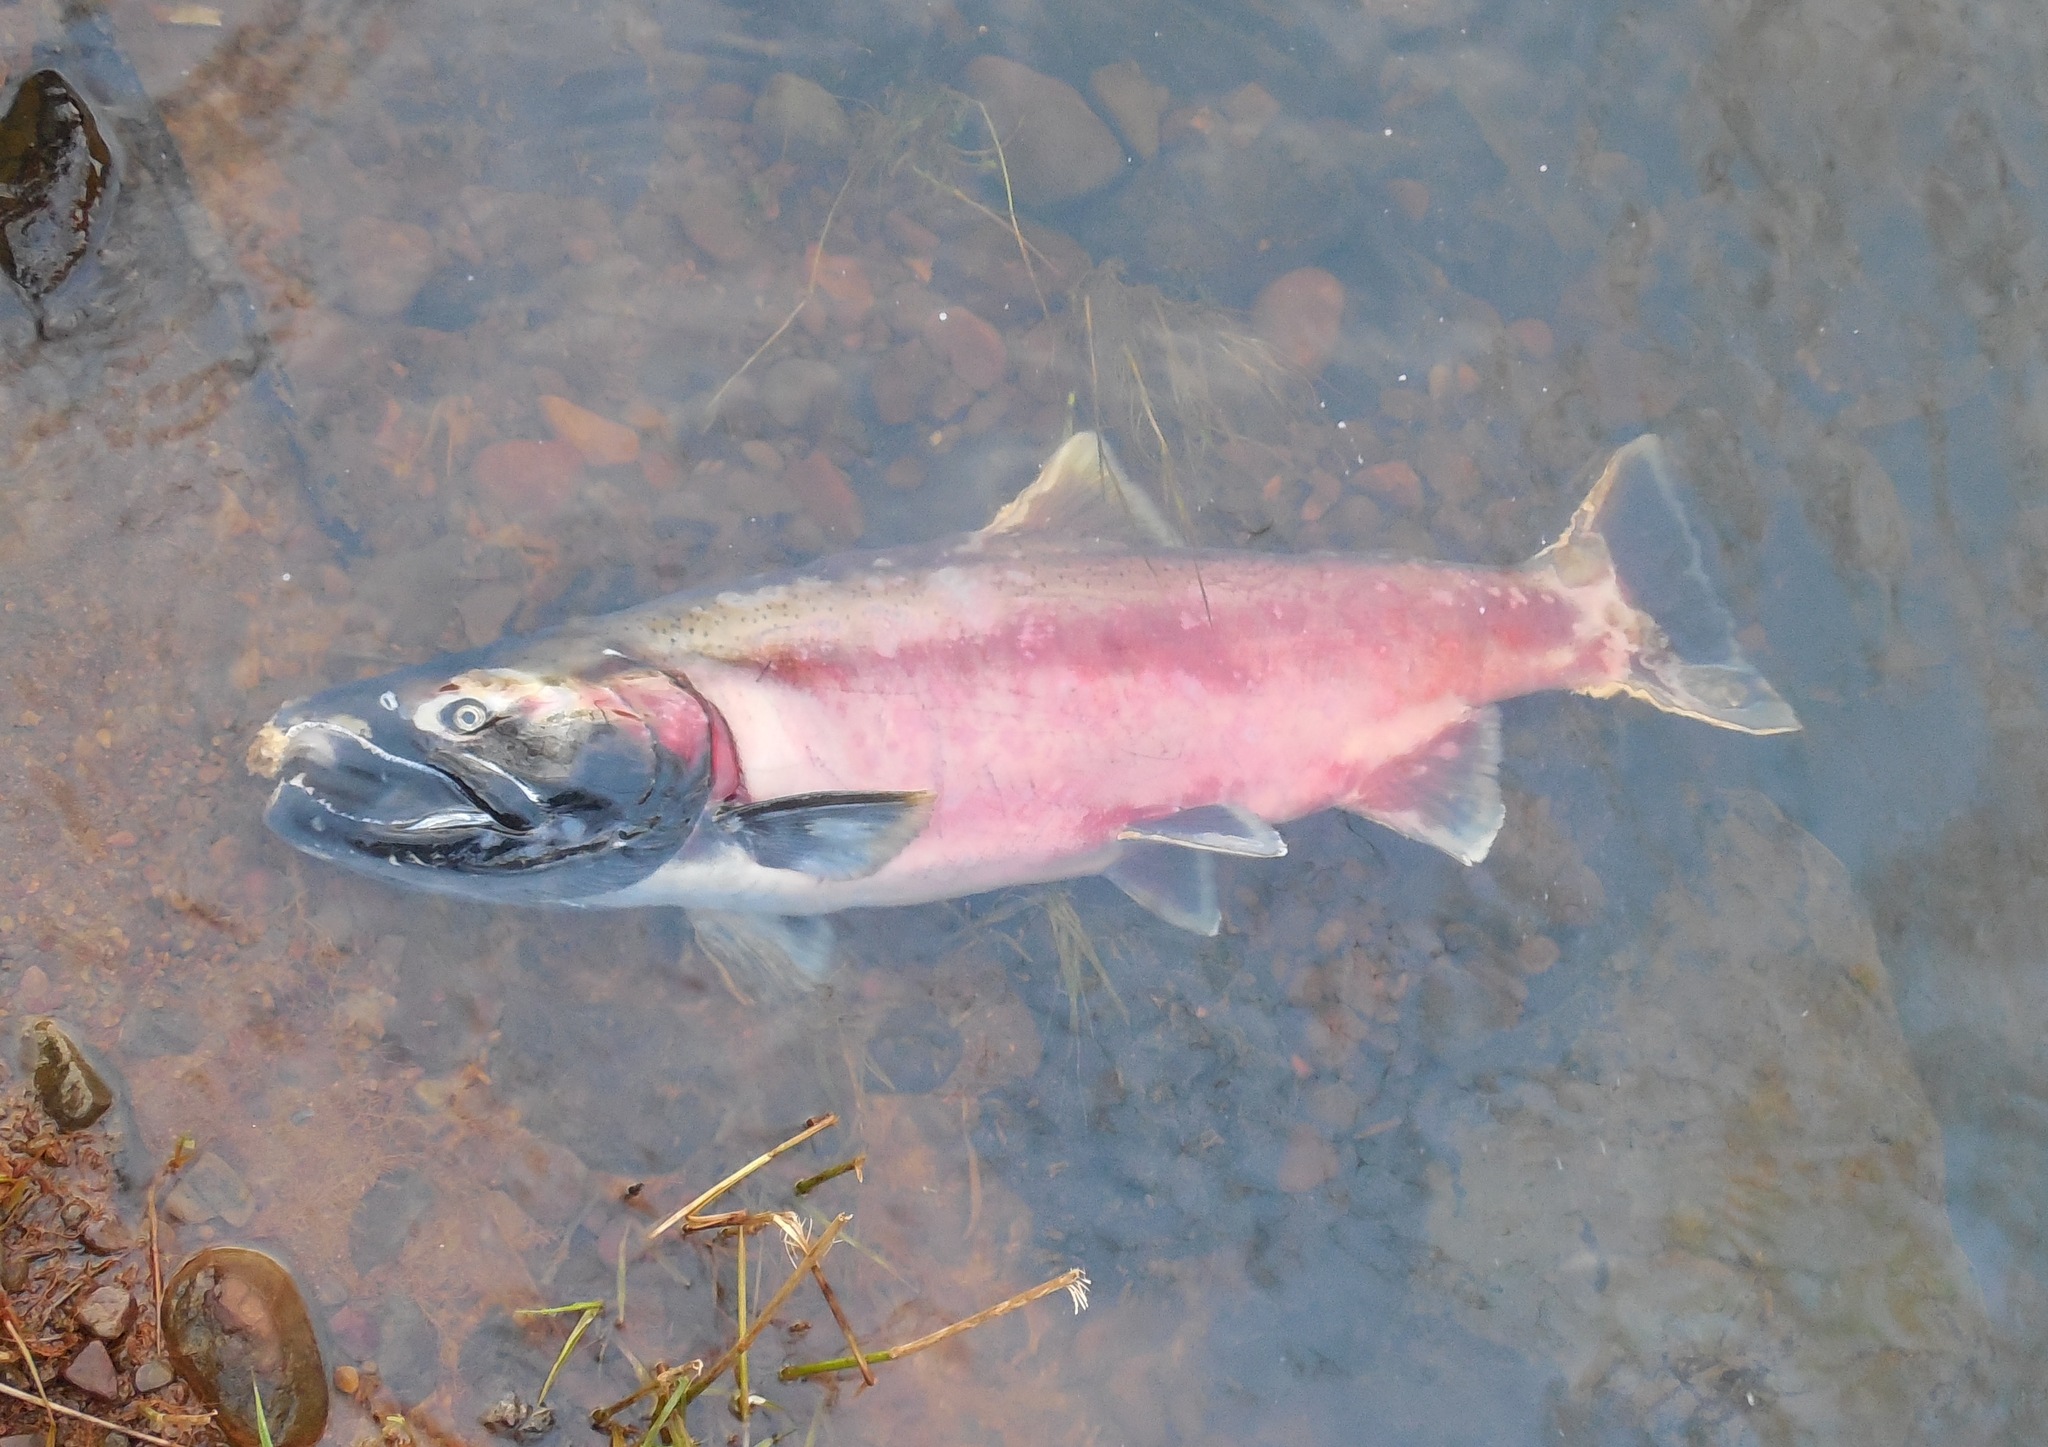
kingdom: Animalia
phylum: Chordata
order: Salmoniformes
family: Salmonidae
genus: Oncorhynchus
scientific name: Oncorhynchus kisutch
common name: Coho salmon
